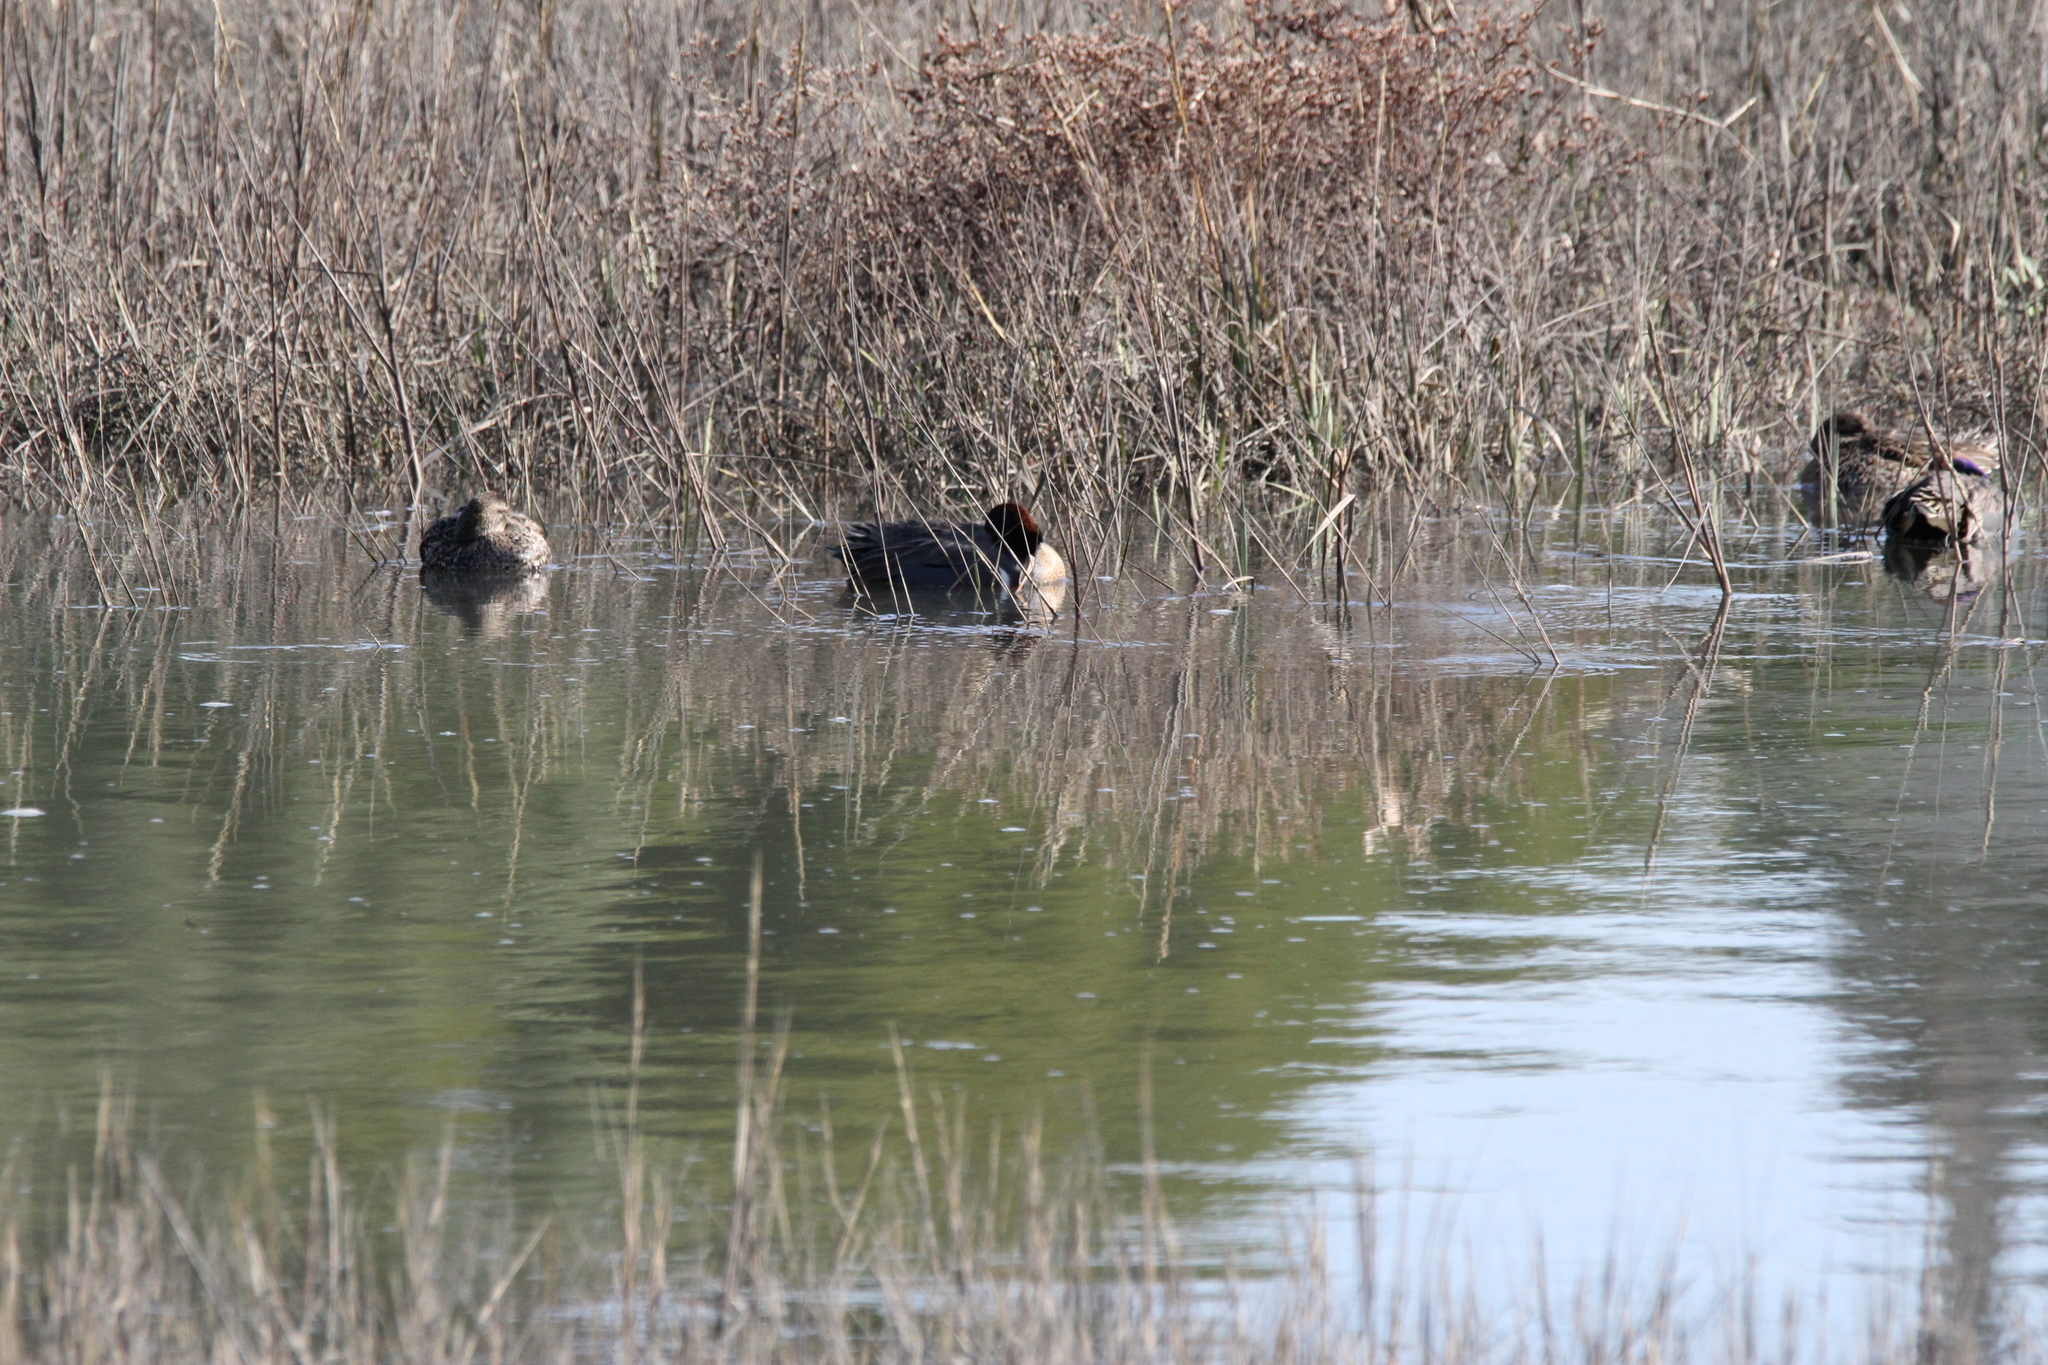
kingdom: Animalia
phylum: Chordata
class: Aves
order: Anseriformes
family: Anatidae
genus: Anas
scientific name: Anas crecca
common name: Eurasian teal
